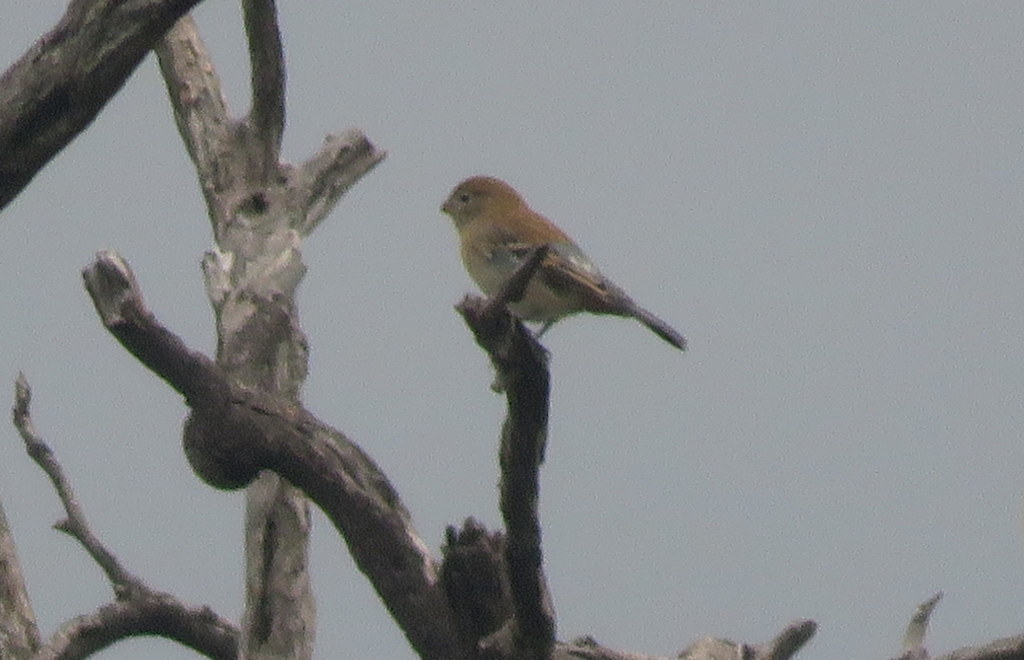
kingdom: Animalia
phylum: Chordata
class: Aves
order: Passeriformes
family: Thraupidae
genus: Catamenia
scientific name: Catamenia analis
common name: Band-tailed seedeater
